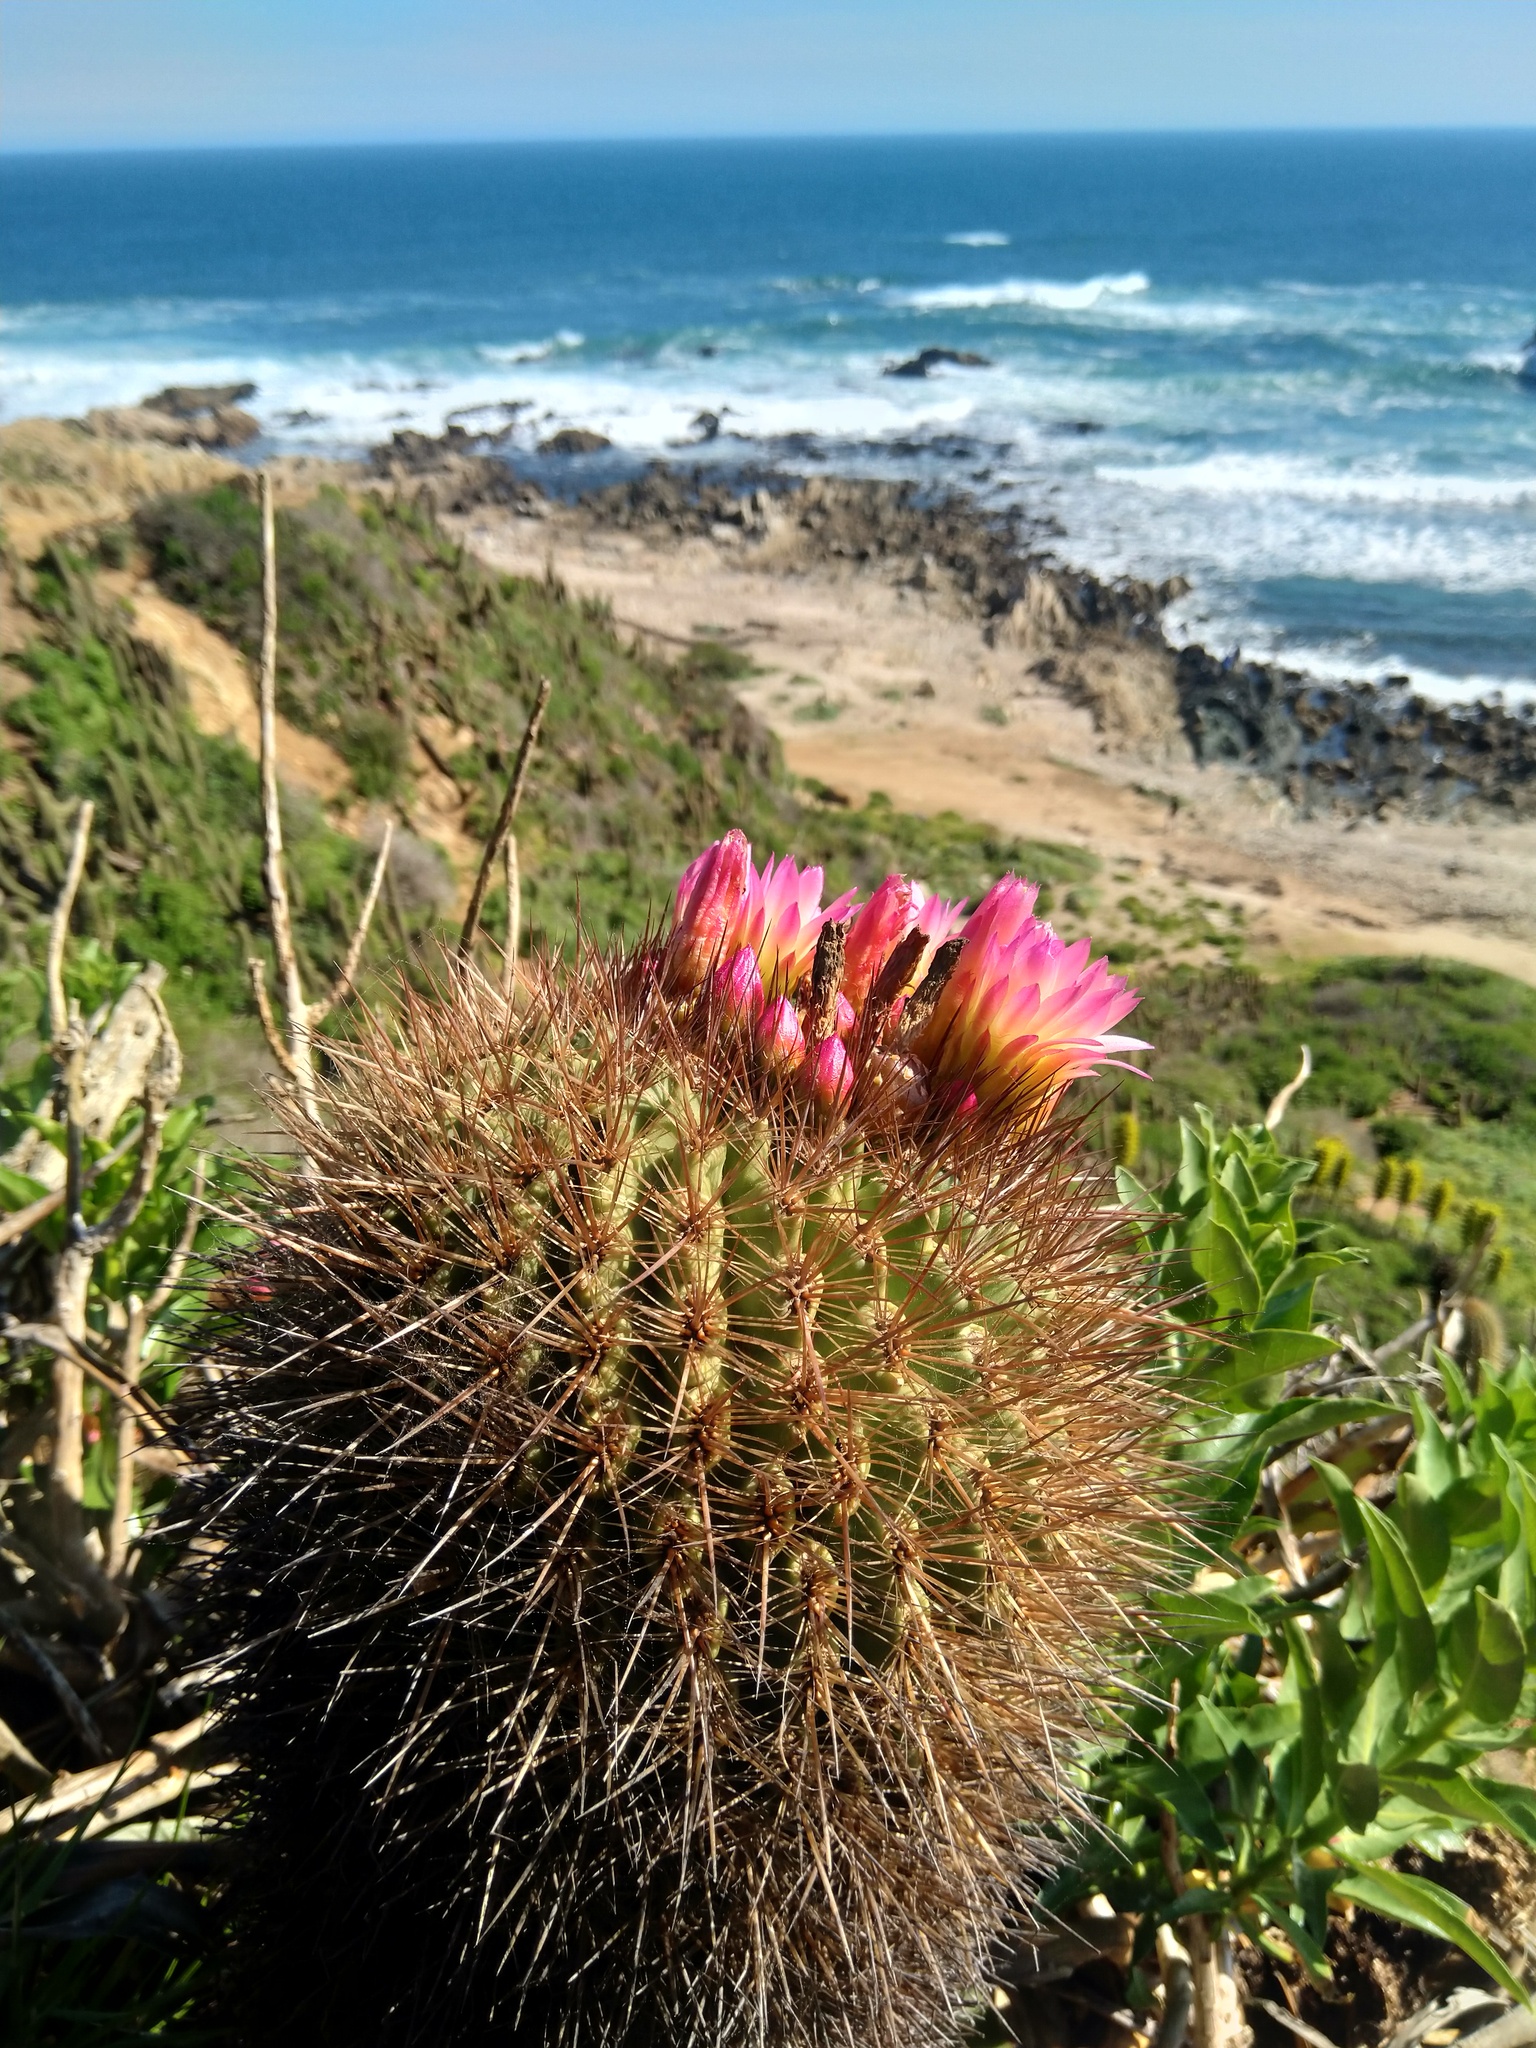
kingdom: Plantae
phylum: Tracheophyta
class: Magnoliopsida
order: Caryophyllales
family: Cactaceae
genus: Eriosyce
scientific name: Eriosyce subgibbosa
